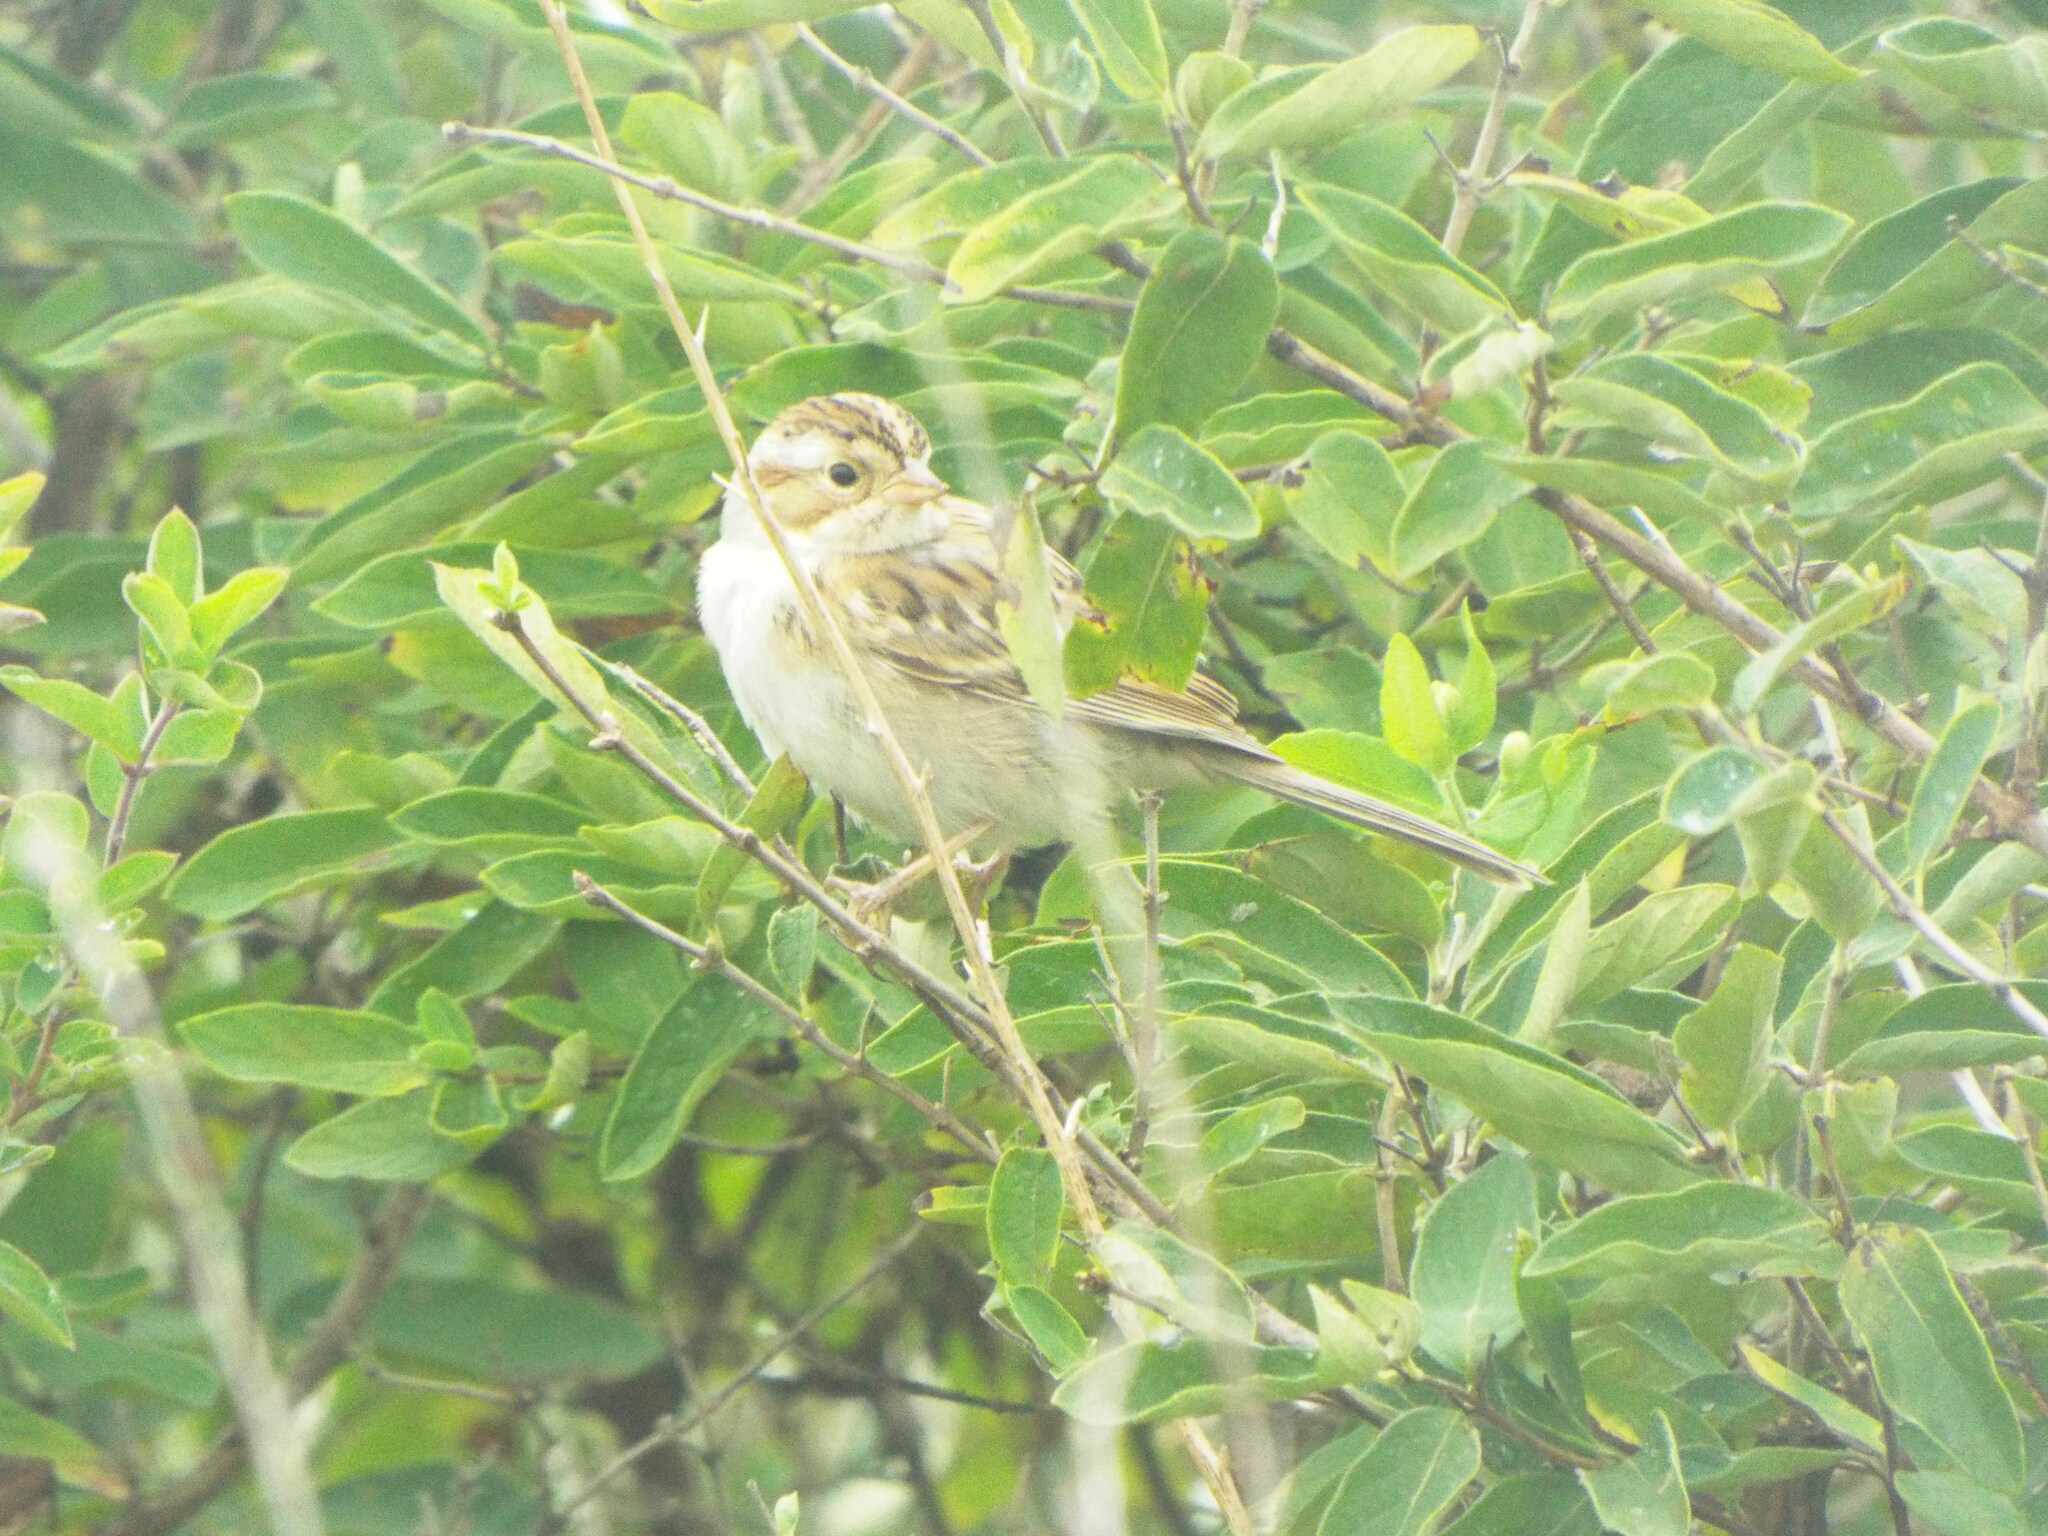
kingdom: Animalia
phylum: Chordata
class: Aves
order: Passeriformes
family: Passerellidae
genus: Spizella
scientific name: Spizella pallida
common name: Clay-colored sparrow
